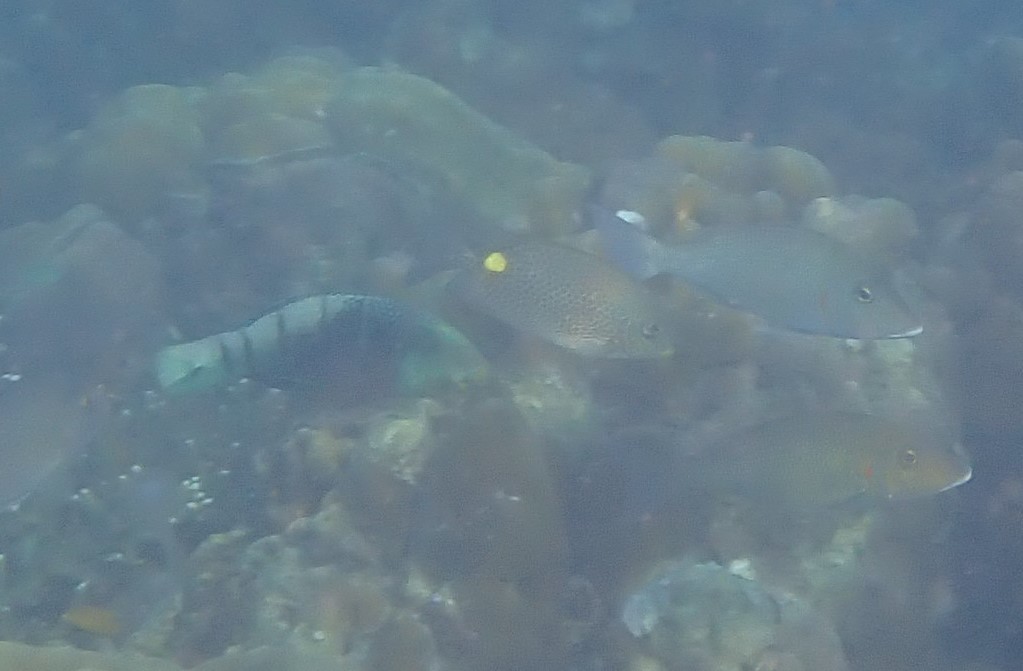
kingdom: Animalia
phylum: Chordata
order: Perciformes
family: Siganidae
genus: Siganus
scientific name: Siganus guttatus
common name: Golden rabbitfish
